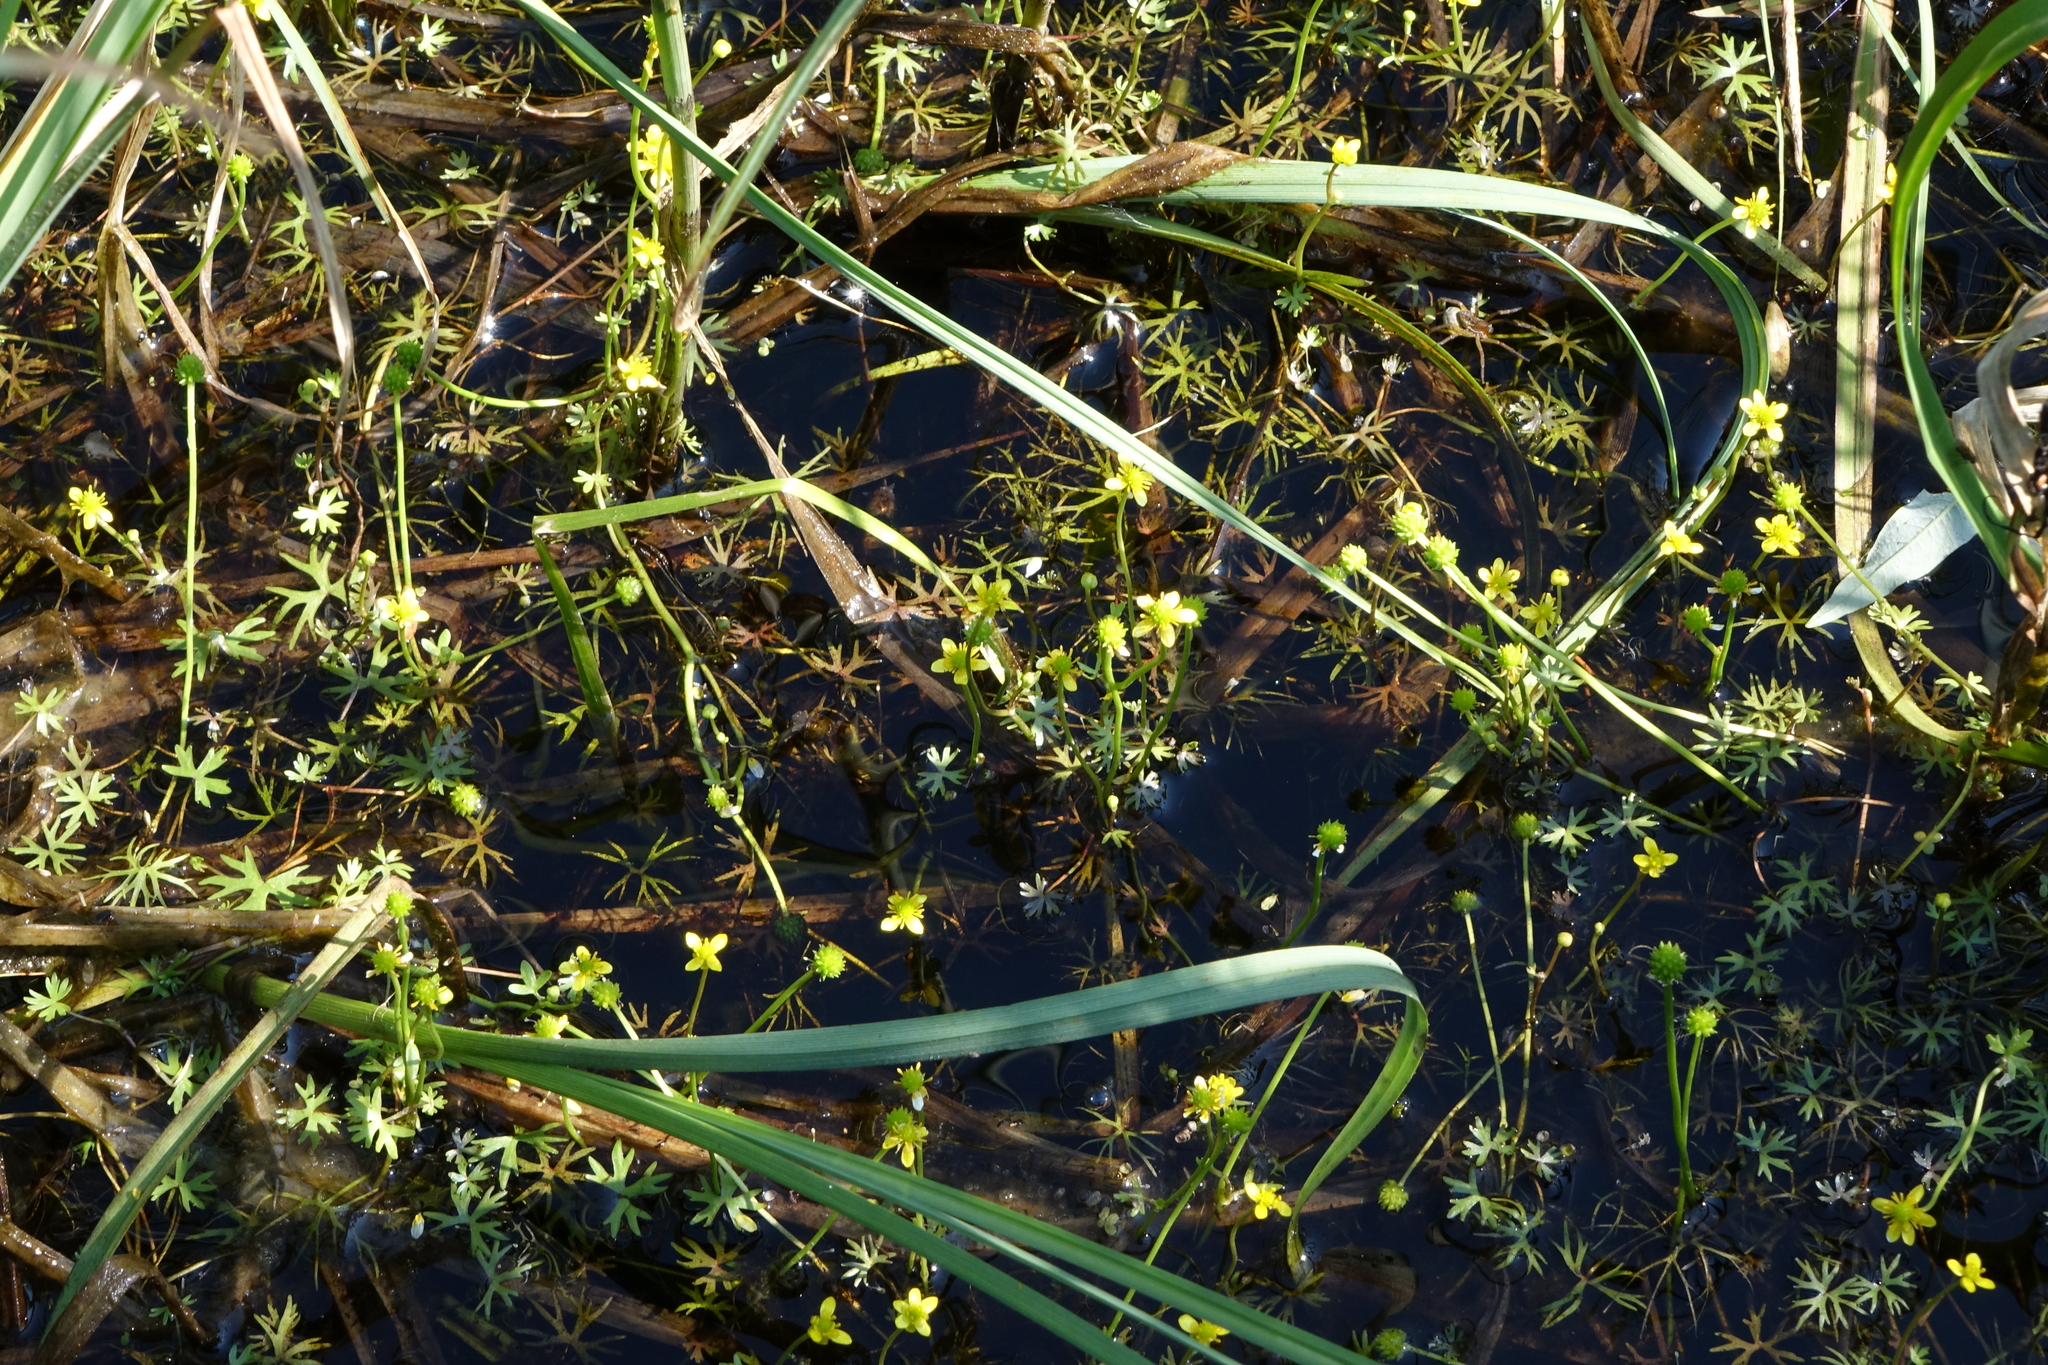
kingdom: Plantae
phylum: Tracheophyta
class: Magnoliopsida
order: Ranunculales
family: Ranunculaceae
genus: Ranunculus
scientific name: Ranunculus gmelinii
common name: Gmelin's buttercup
